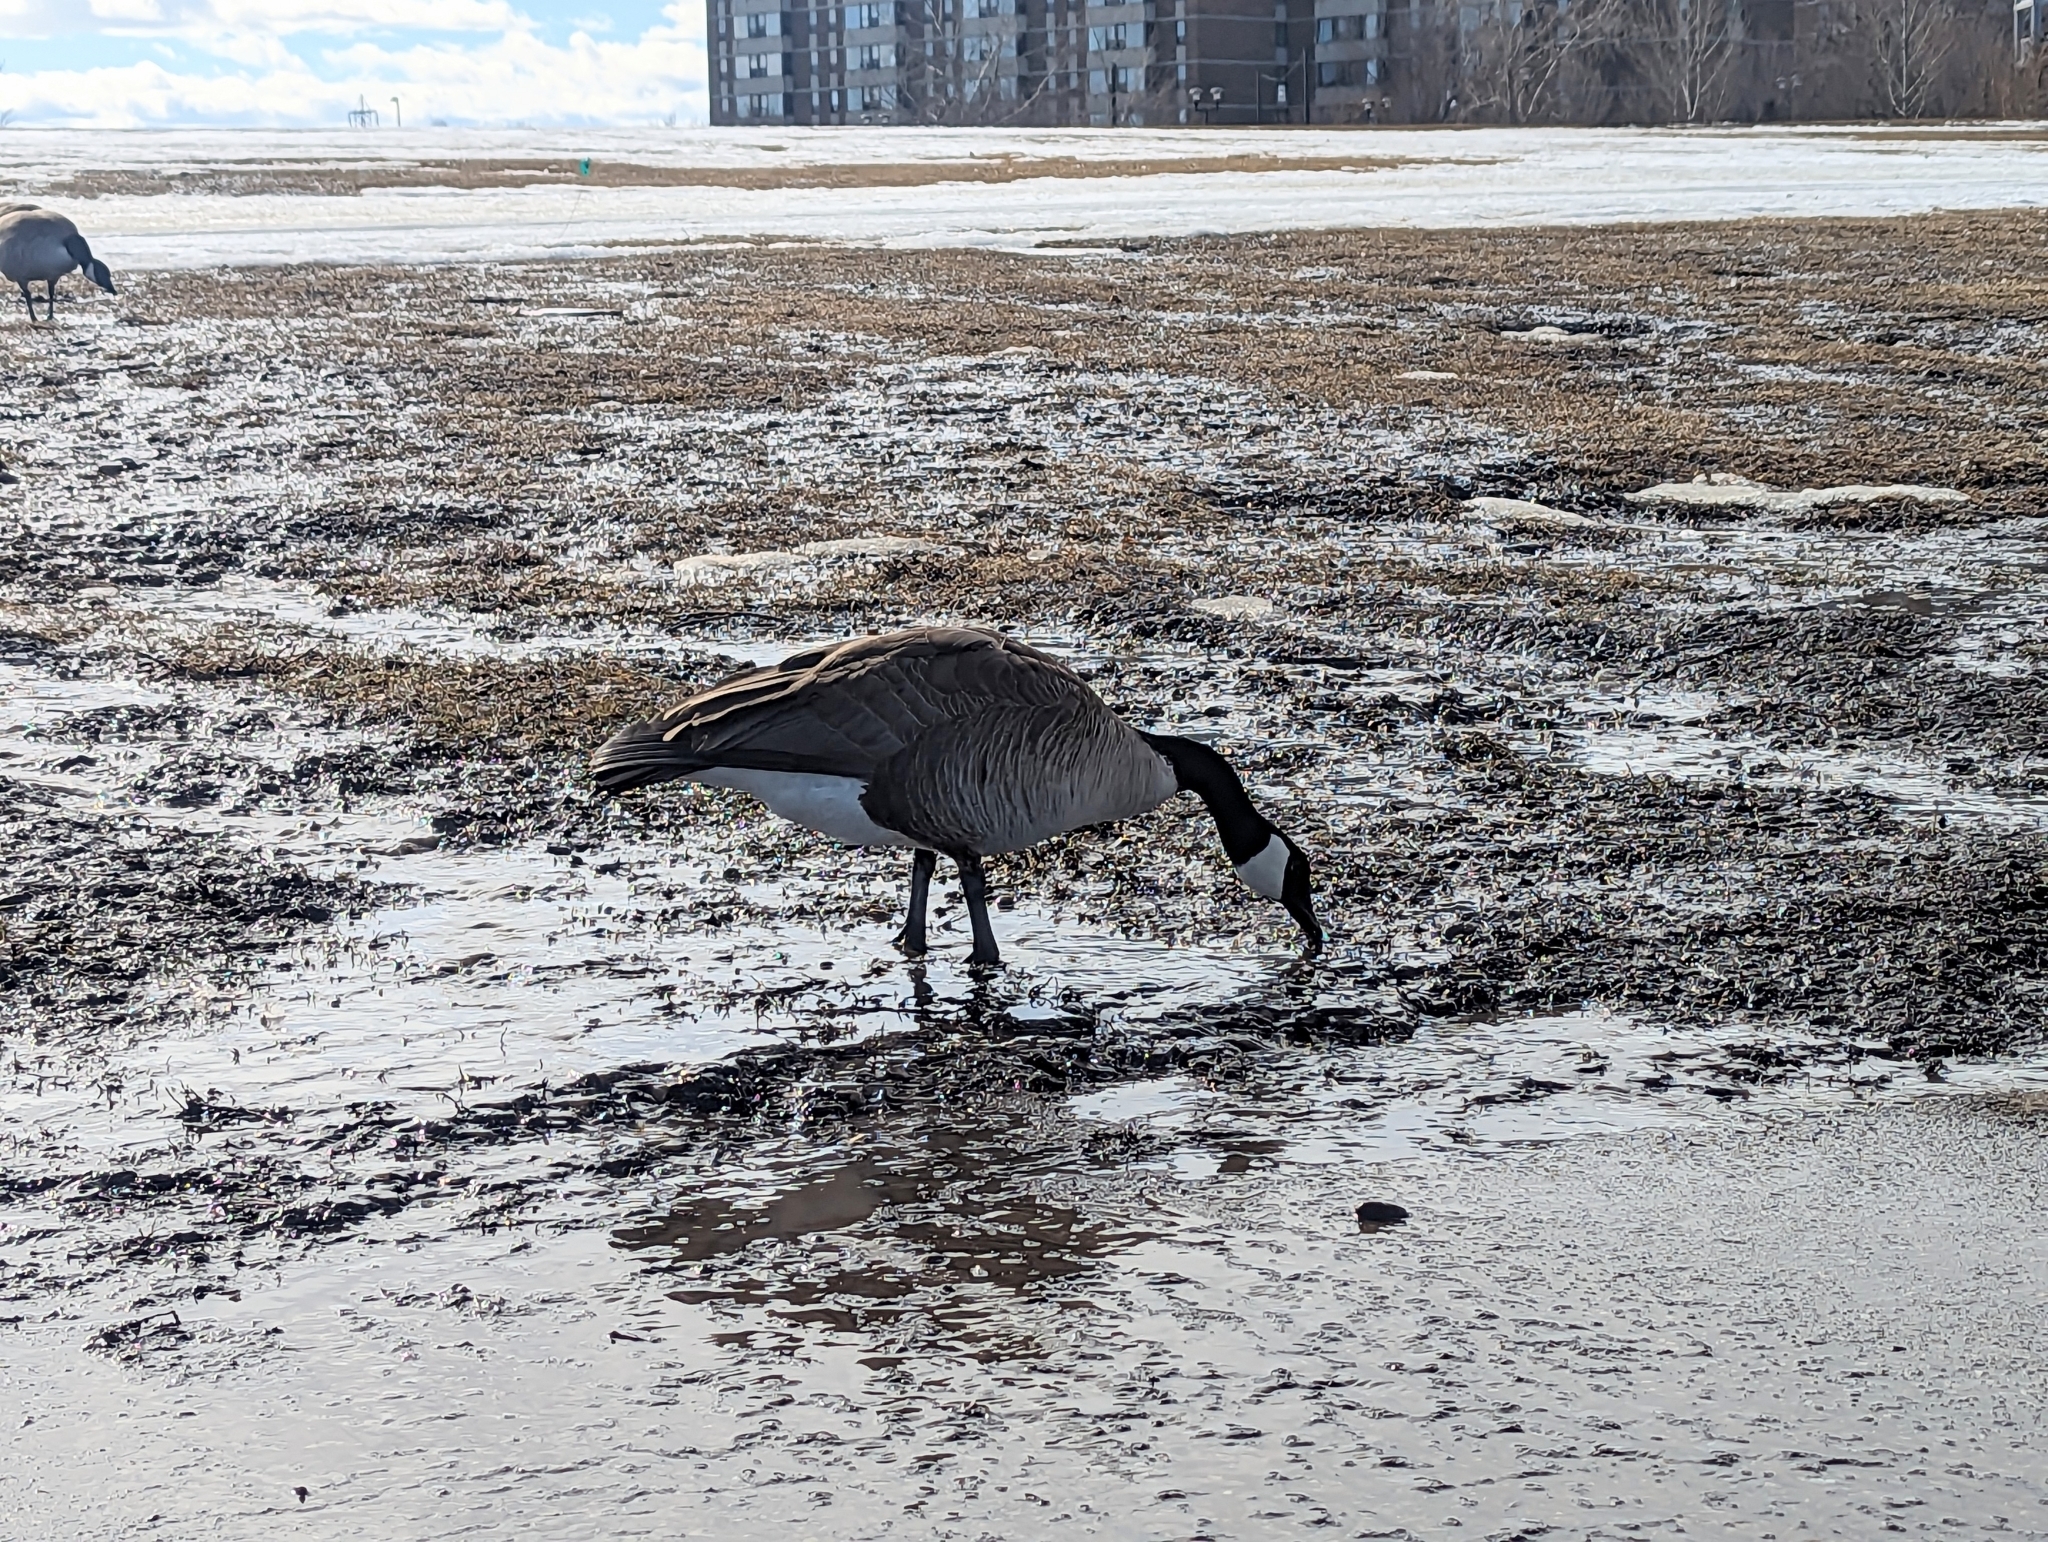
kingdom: Animalia
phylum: Chordata
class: Aves
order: Anseriformes
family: Anatidae
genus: Branta
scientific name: Branta canadensis
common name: Canada goose
